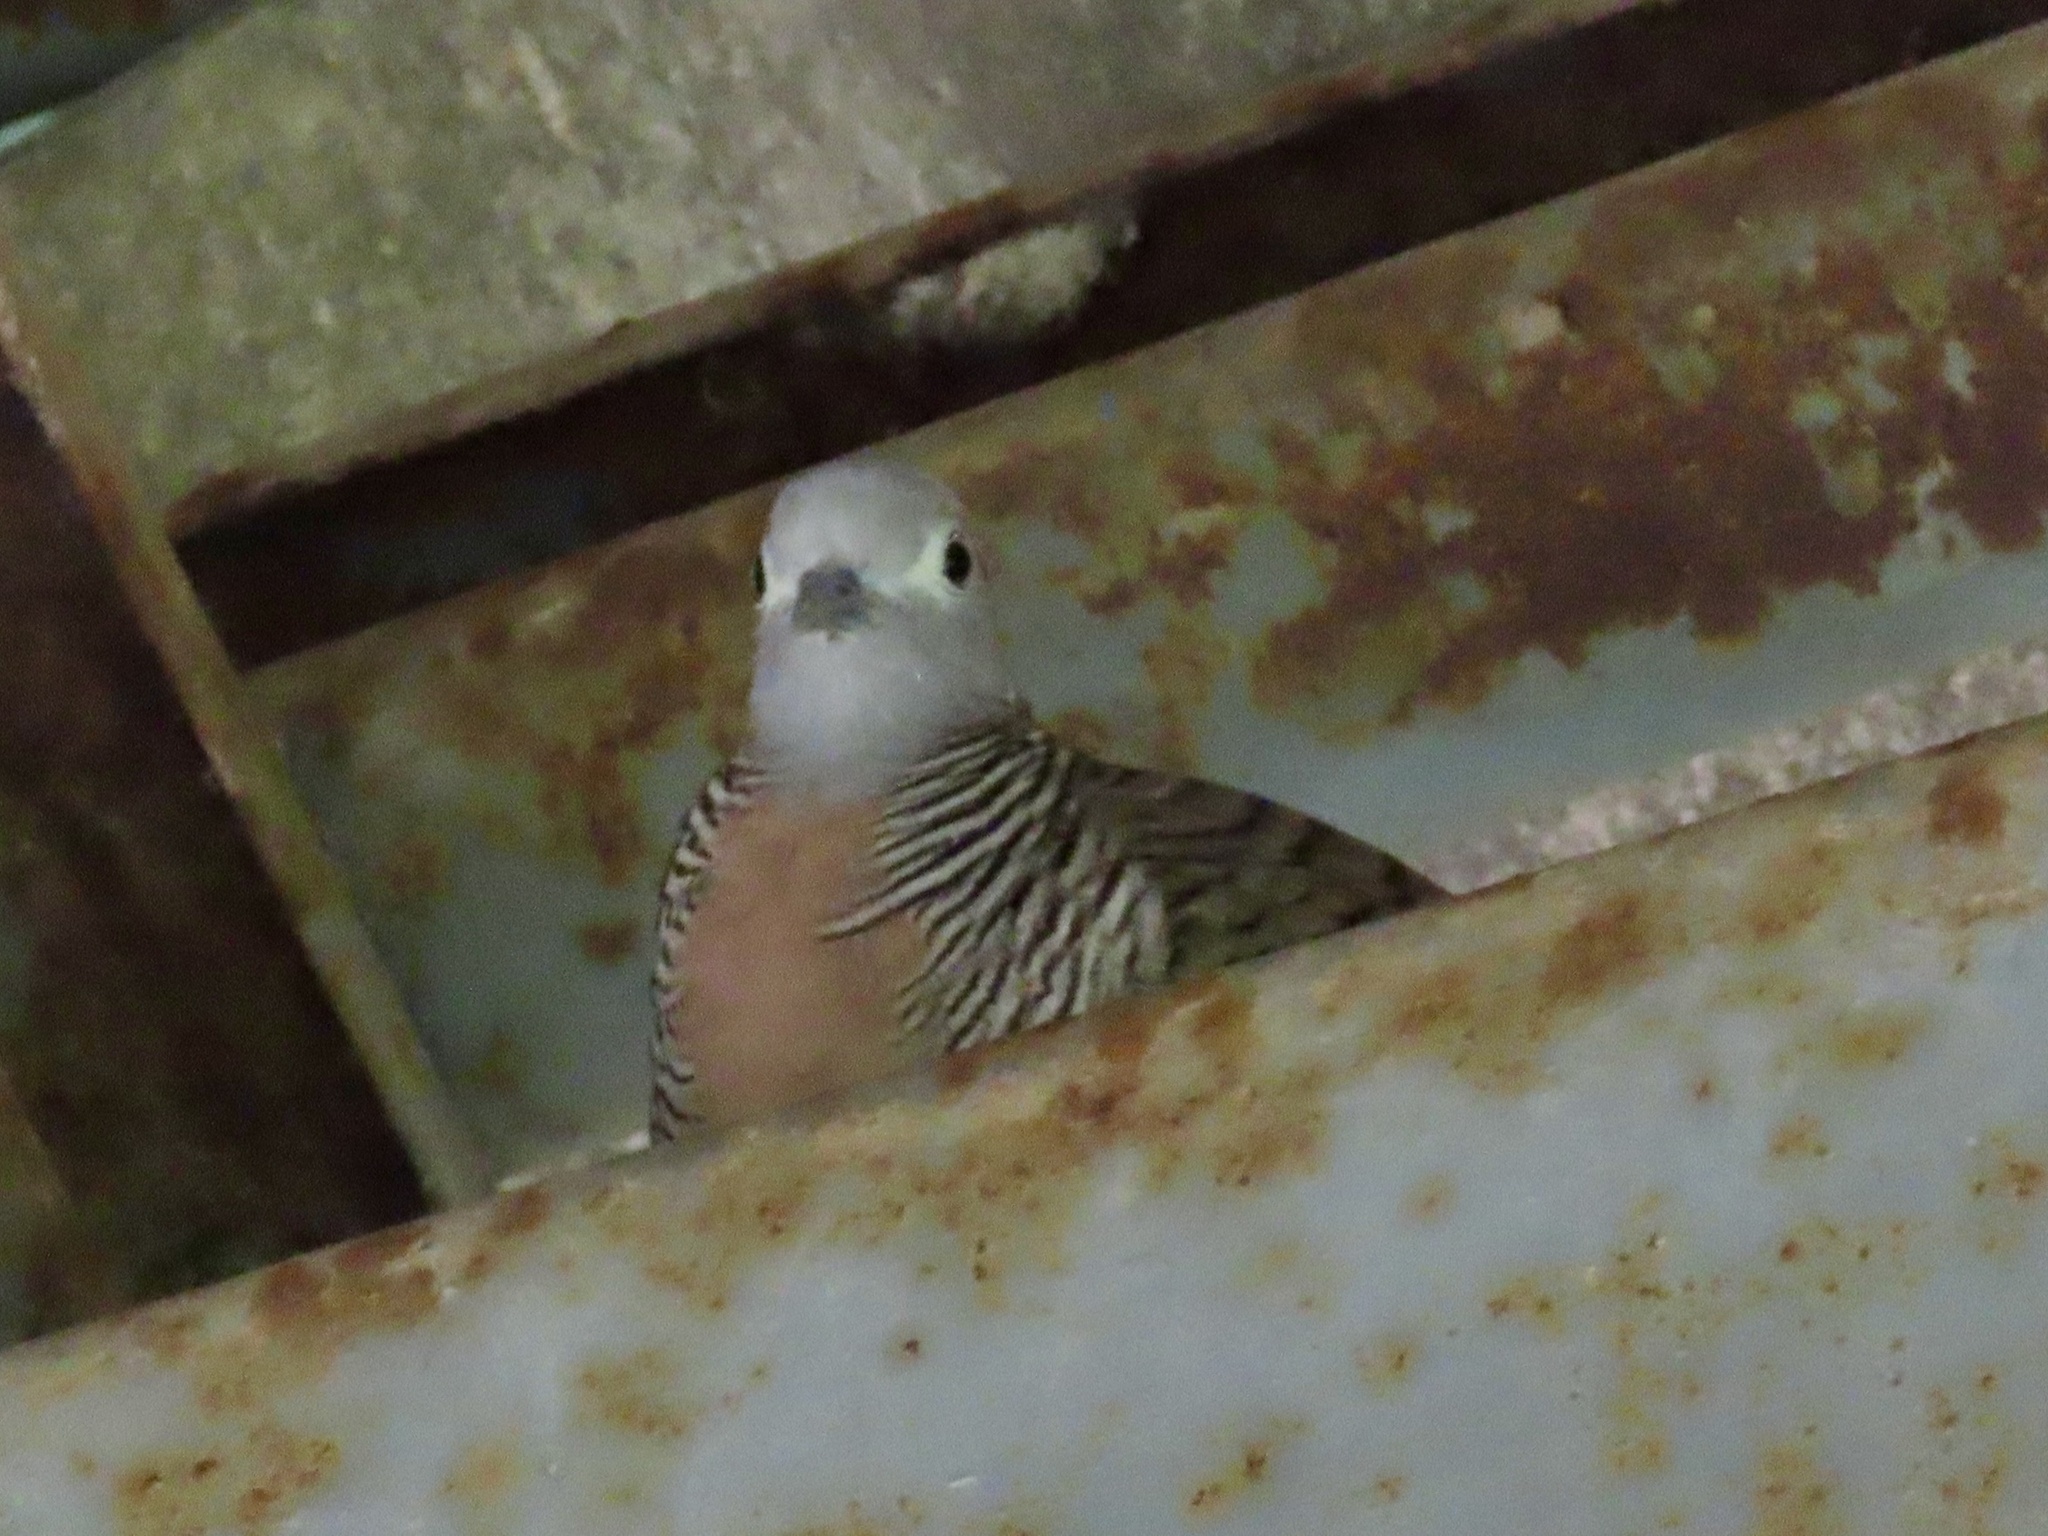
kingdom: Animalia
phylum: Chordata
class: Aves
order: Columbiformes
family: Columbidae
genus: Geopelia
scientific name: Geopelia striata
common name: Zebra dove
